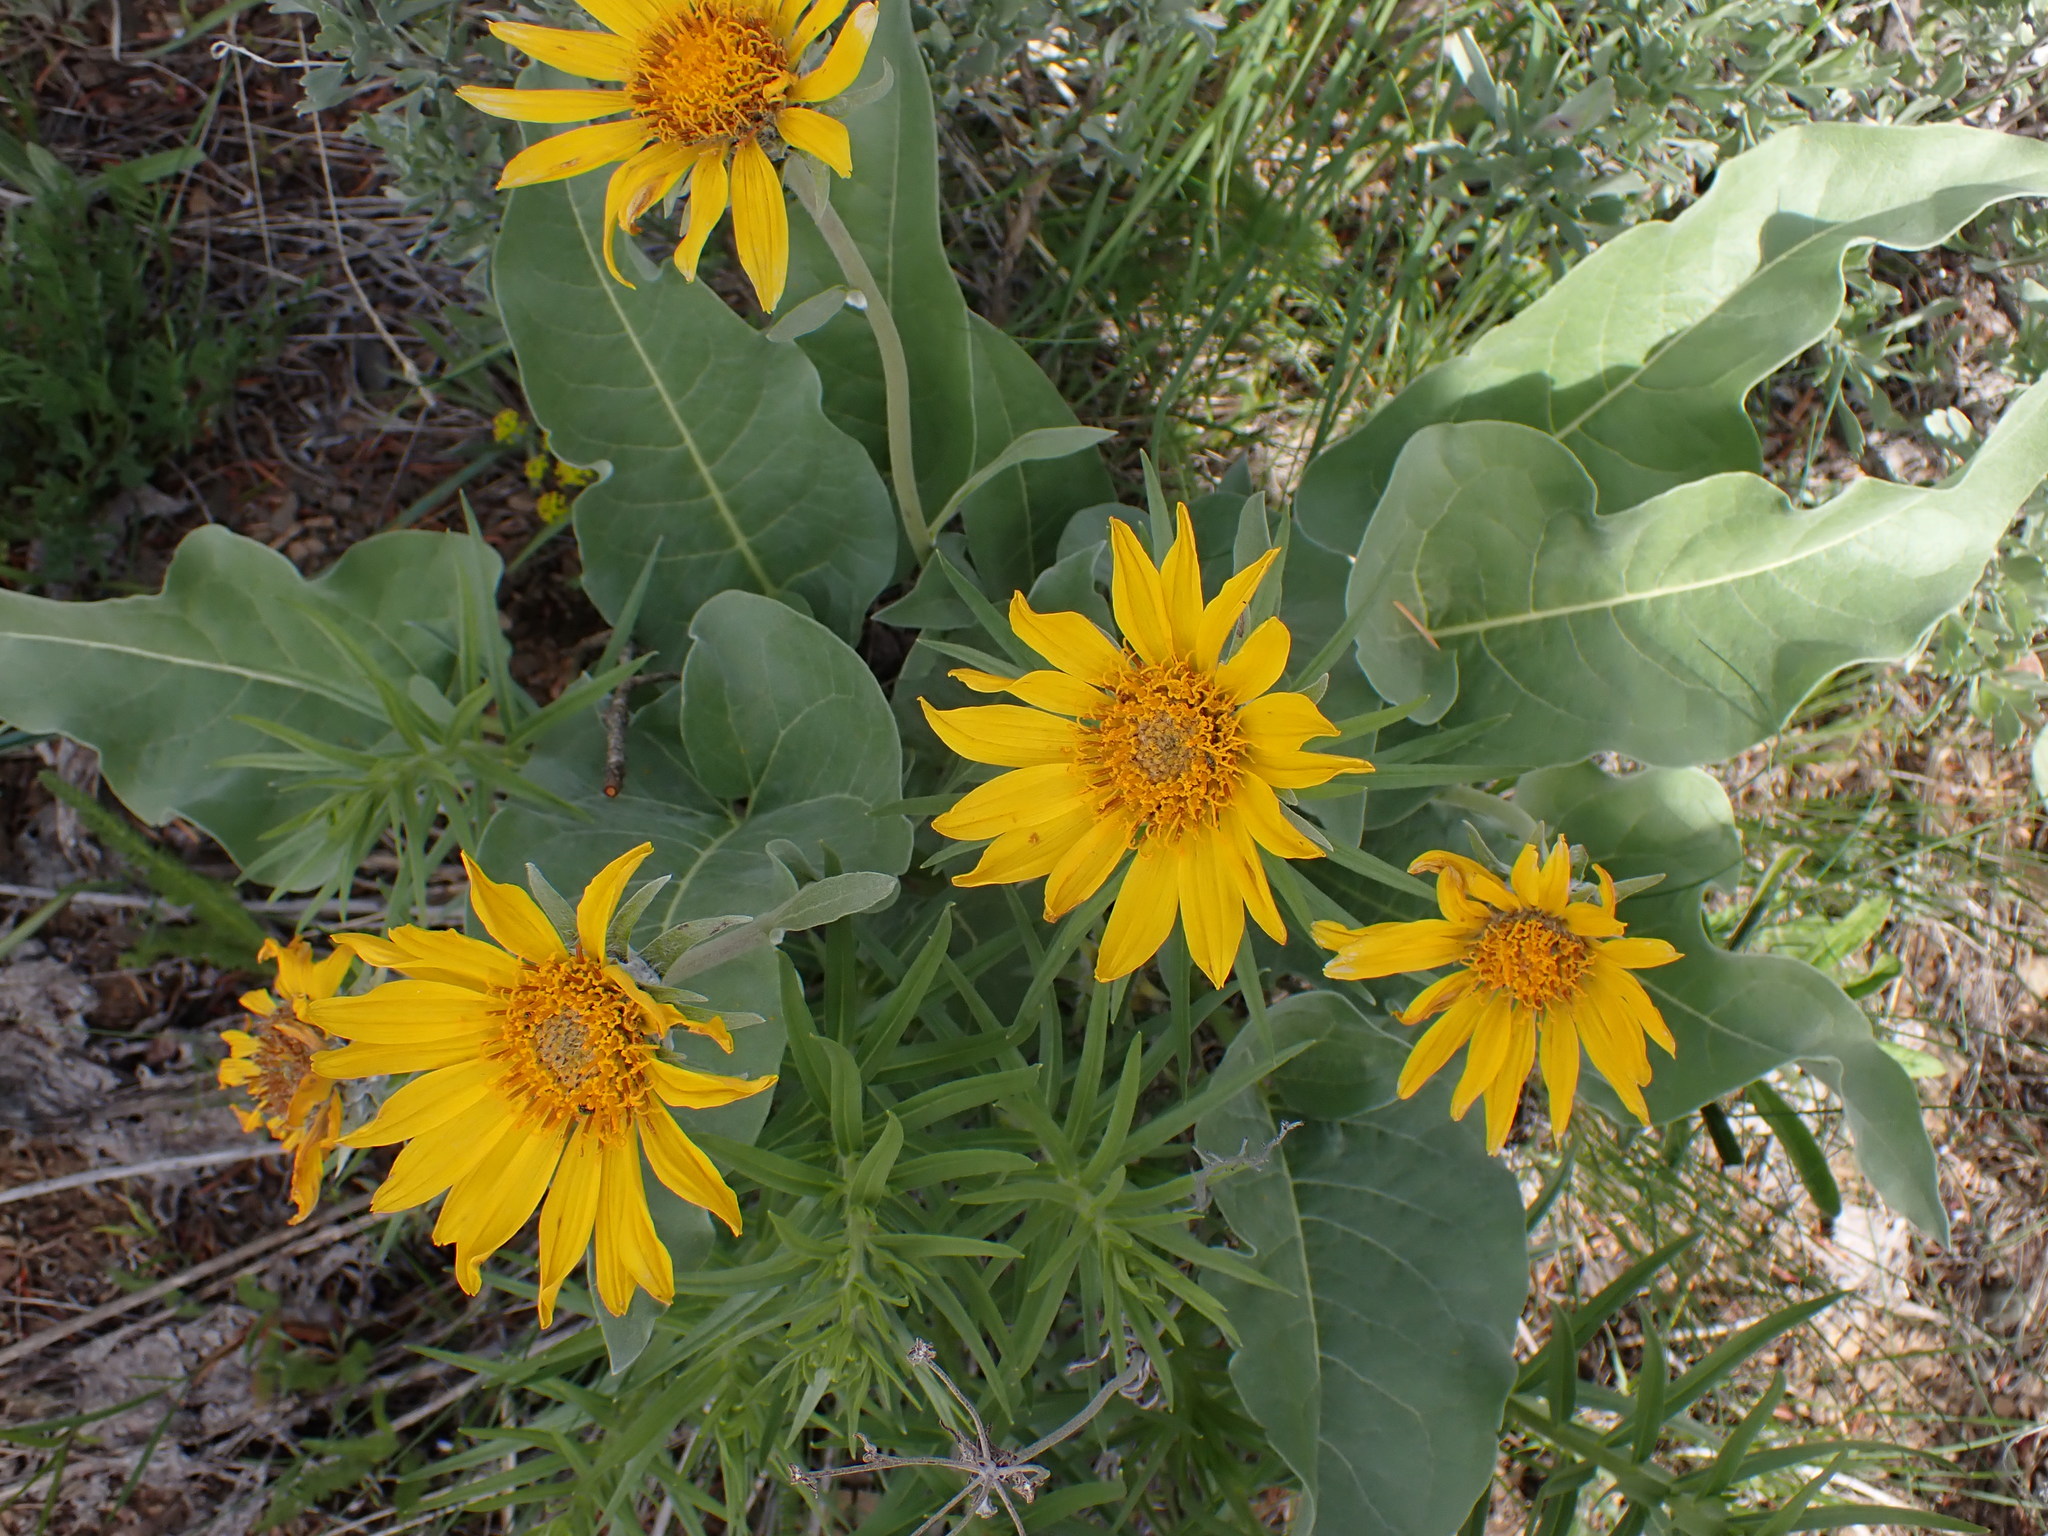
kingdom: Plantae
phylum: Tracheophyta
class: Magnoliopsida
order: Asterales
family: Asteraceae
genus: Wyethia
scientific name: Wyethia sagittata
